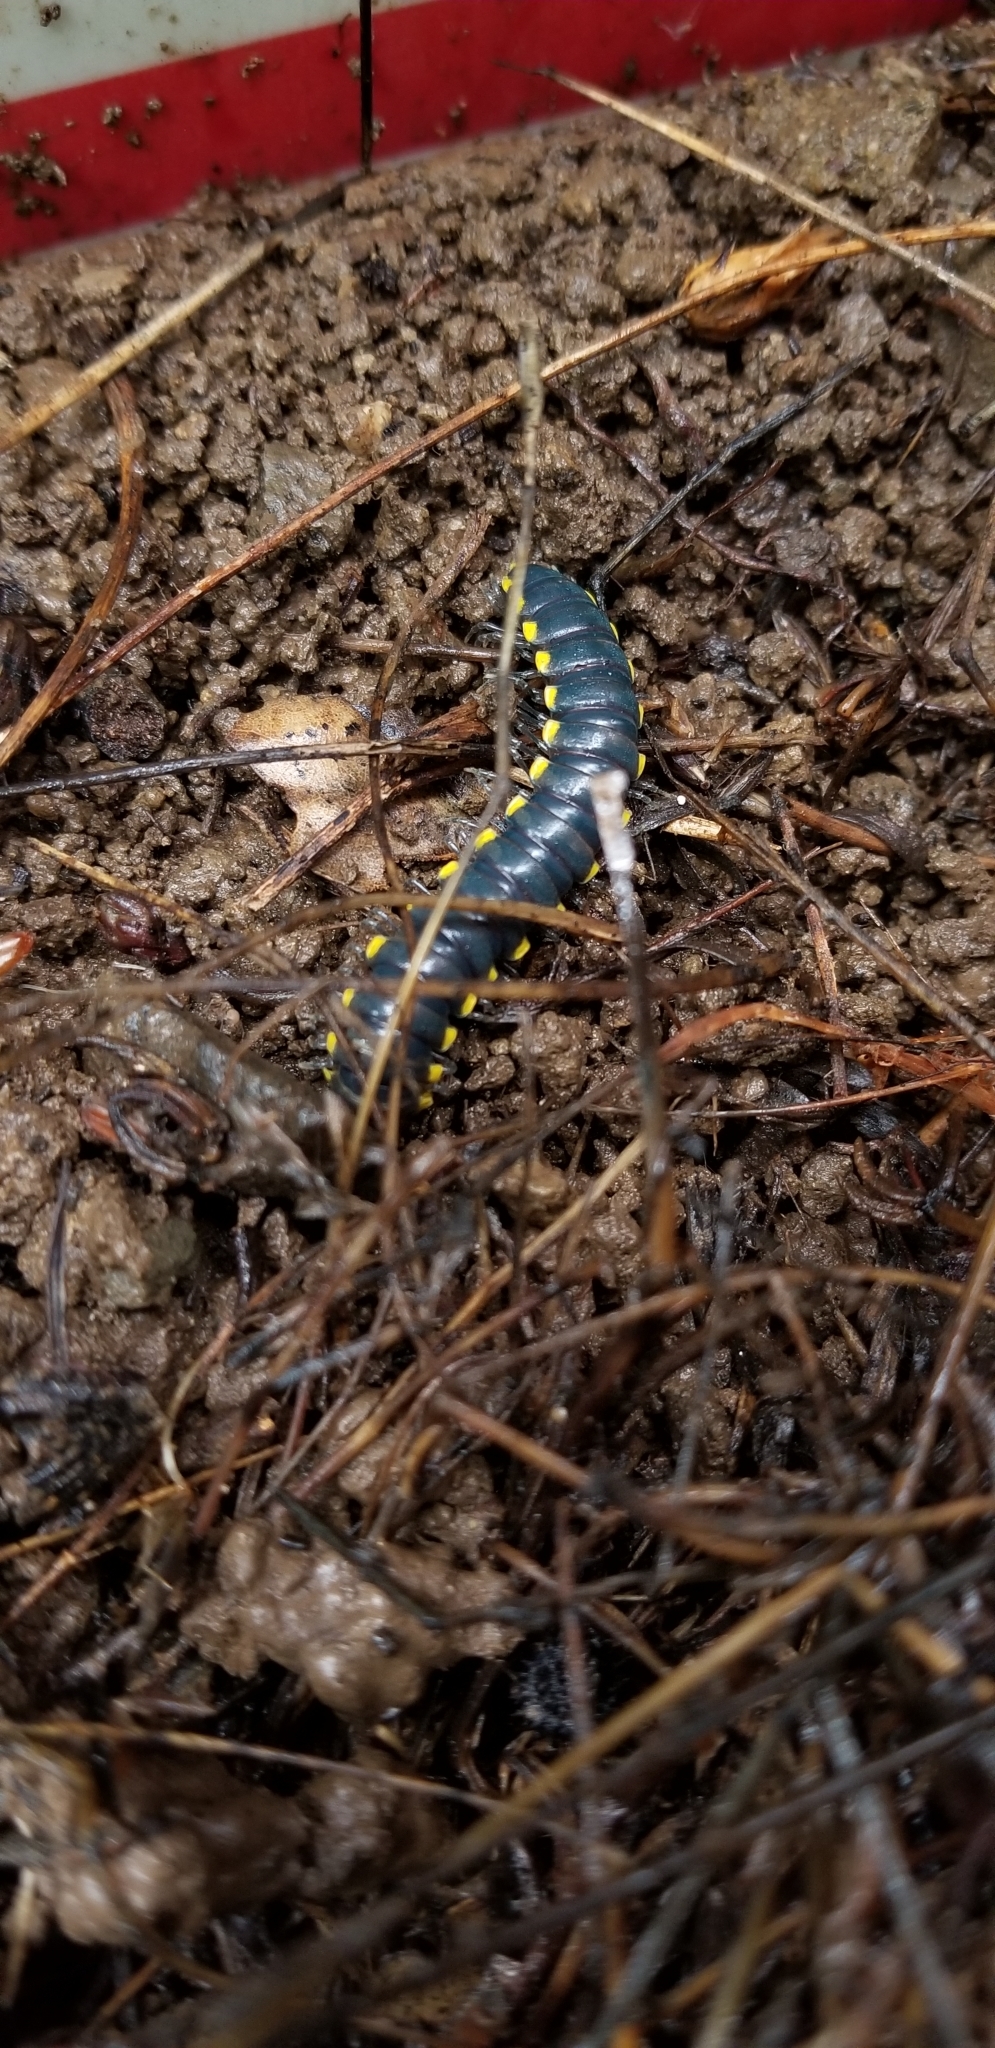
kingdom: Animalia
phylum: Arthropoda
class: Diplopoda
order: Polydesmida
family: Xystodesmidae
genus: Harpaphe
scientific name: Harpaphe haydeniana
